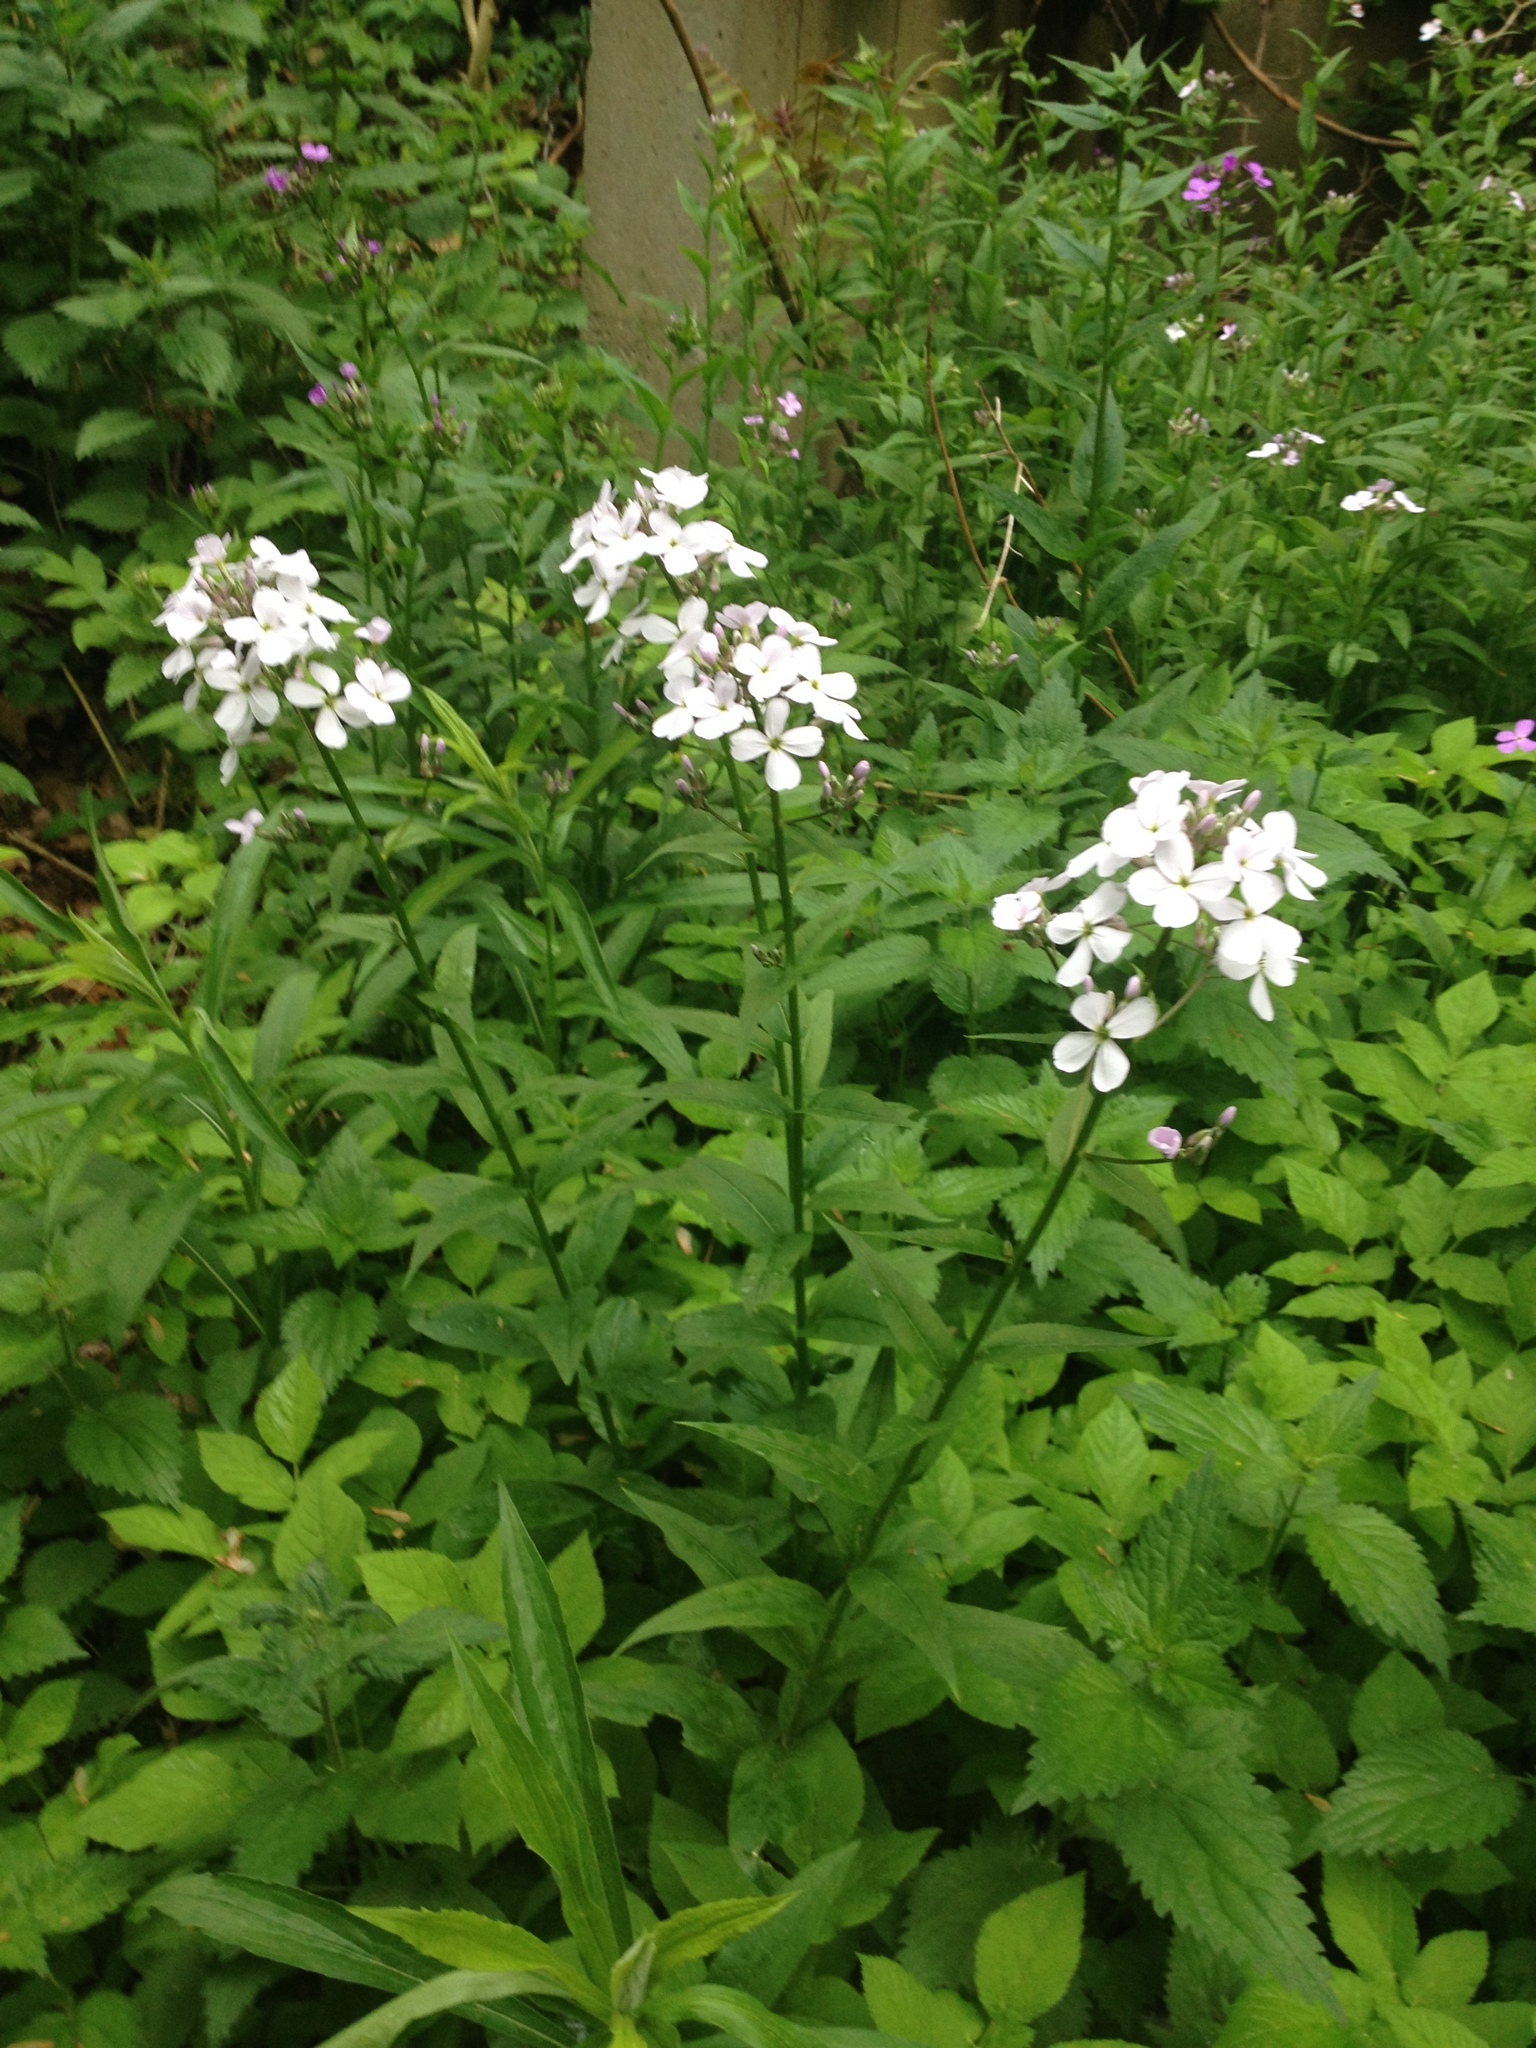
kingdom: Plantae
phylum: Tracheophyta
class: Magnoliopsida
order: Brassicales
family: Brassicaceae
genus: Hesperis
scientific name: Hesperis matronalis
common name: Dame's-violet
